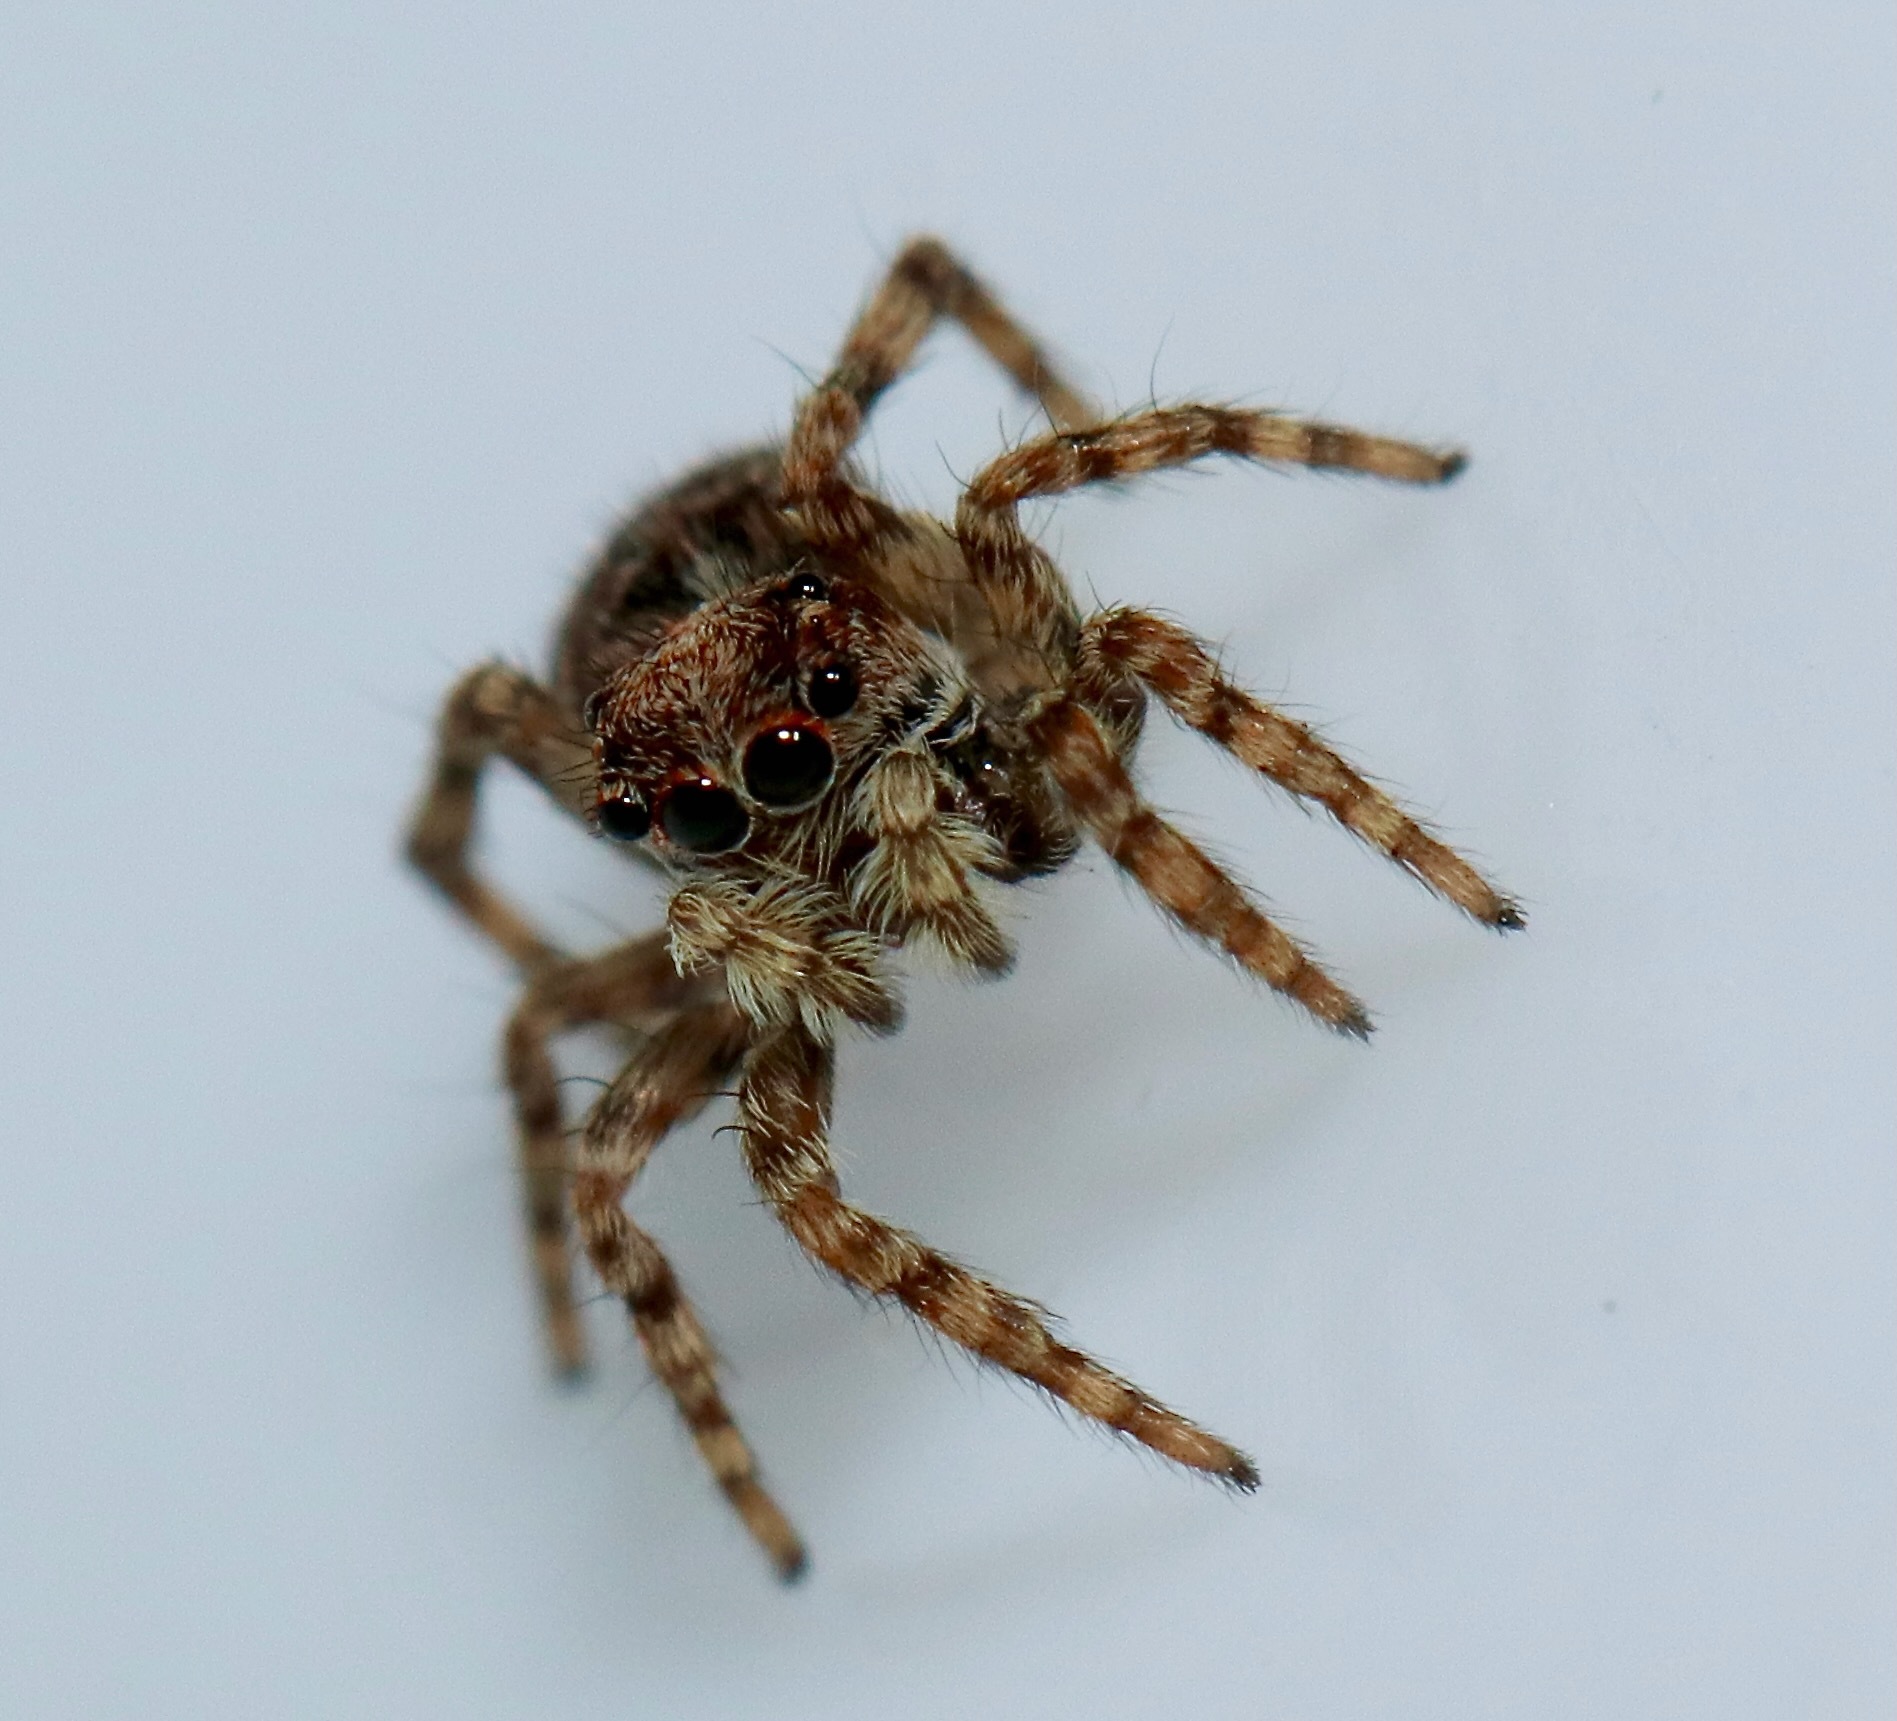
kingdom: Animalia
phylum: Arthropoda
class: Arachnida
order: Araneae
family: Salticidae
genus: Attulus
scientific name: Attulus fasciger
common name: Asiatic wall jumping spider
